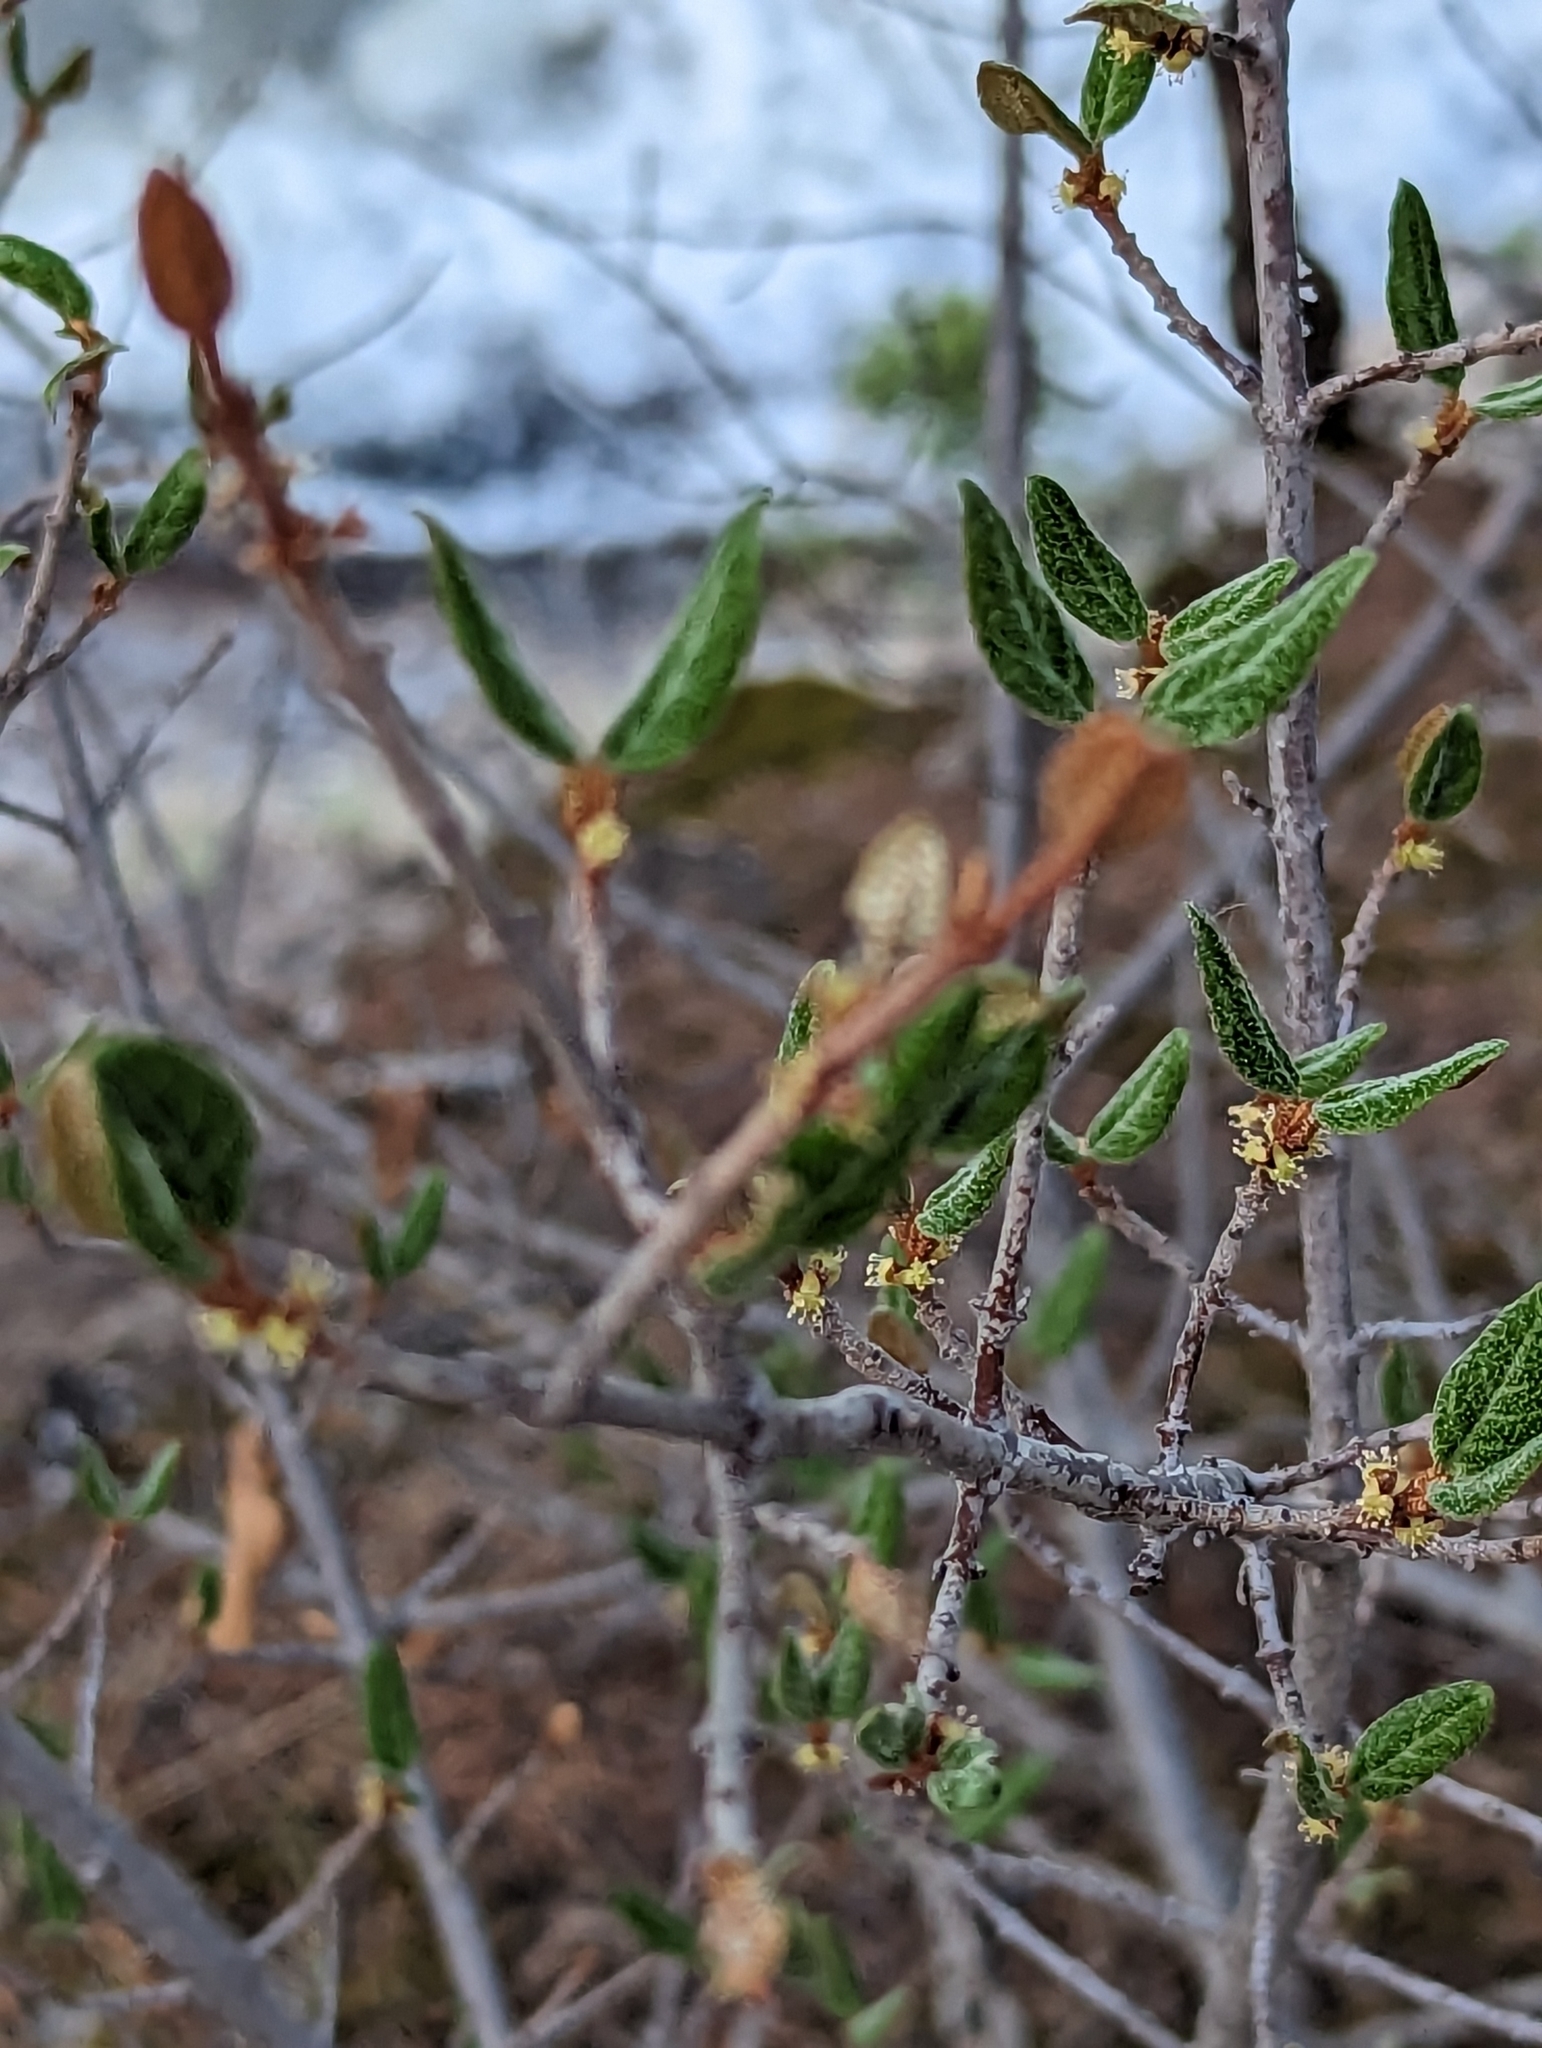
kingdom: Plantae
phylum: Tracheophyta
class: Magnoliopsida
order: Rosales
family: Elaeagnaceae
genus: Shepherdia
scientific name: Shepherdia canadensis
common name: Soapberry
